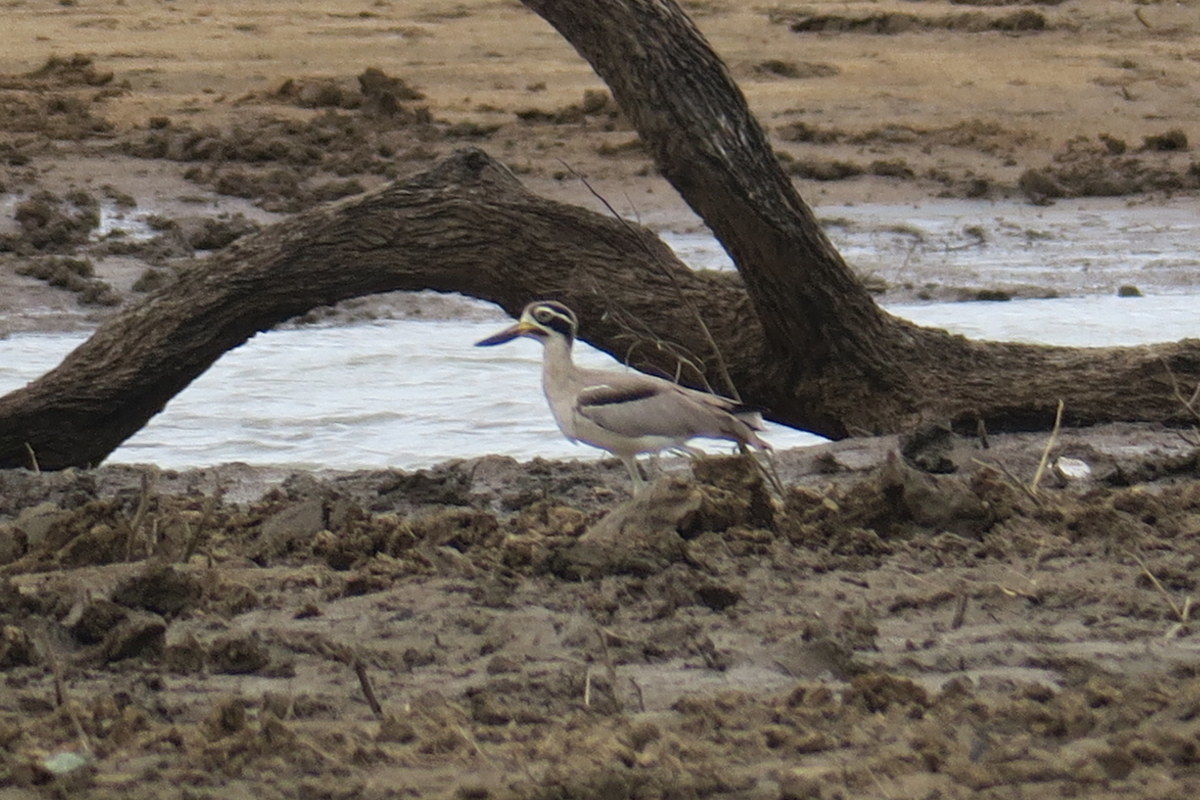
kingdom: Animalia
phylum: Chordata
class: Aves
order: Charadriiformes
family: Burhinidae
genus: Esacus
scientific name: Esacus recurvirostris
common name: Great stone-curlew
